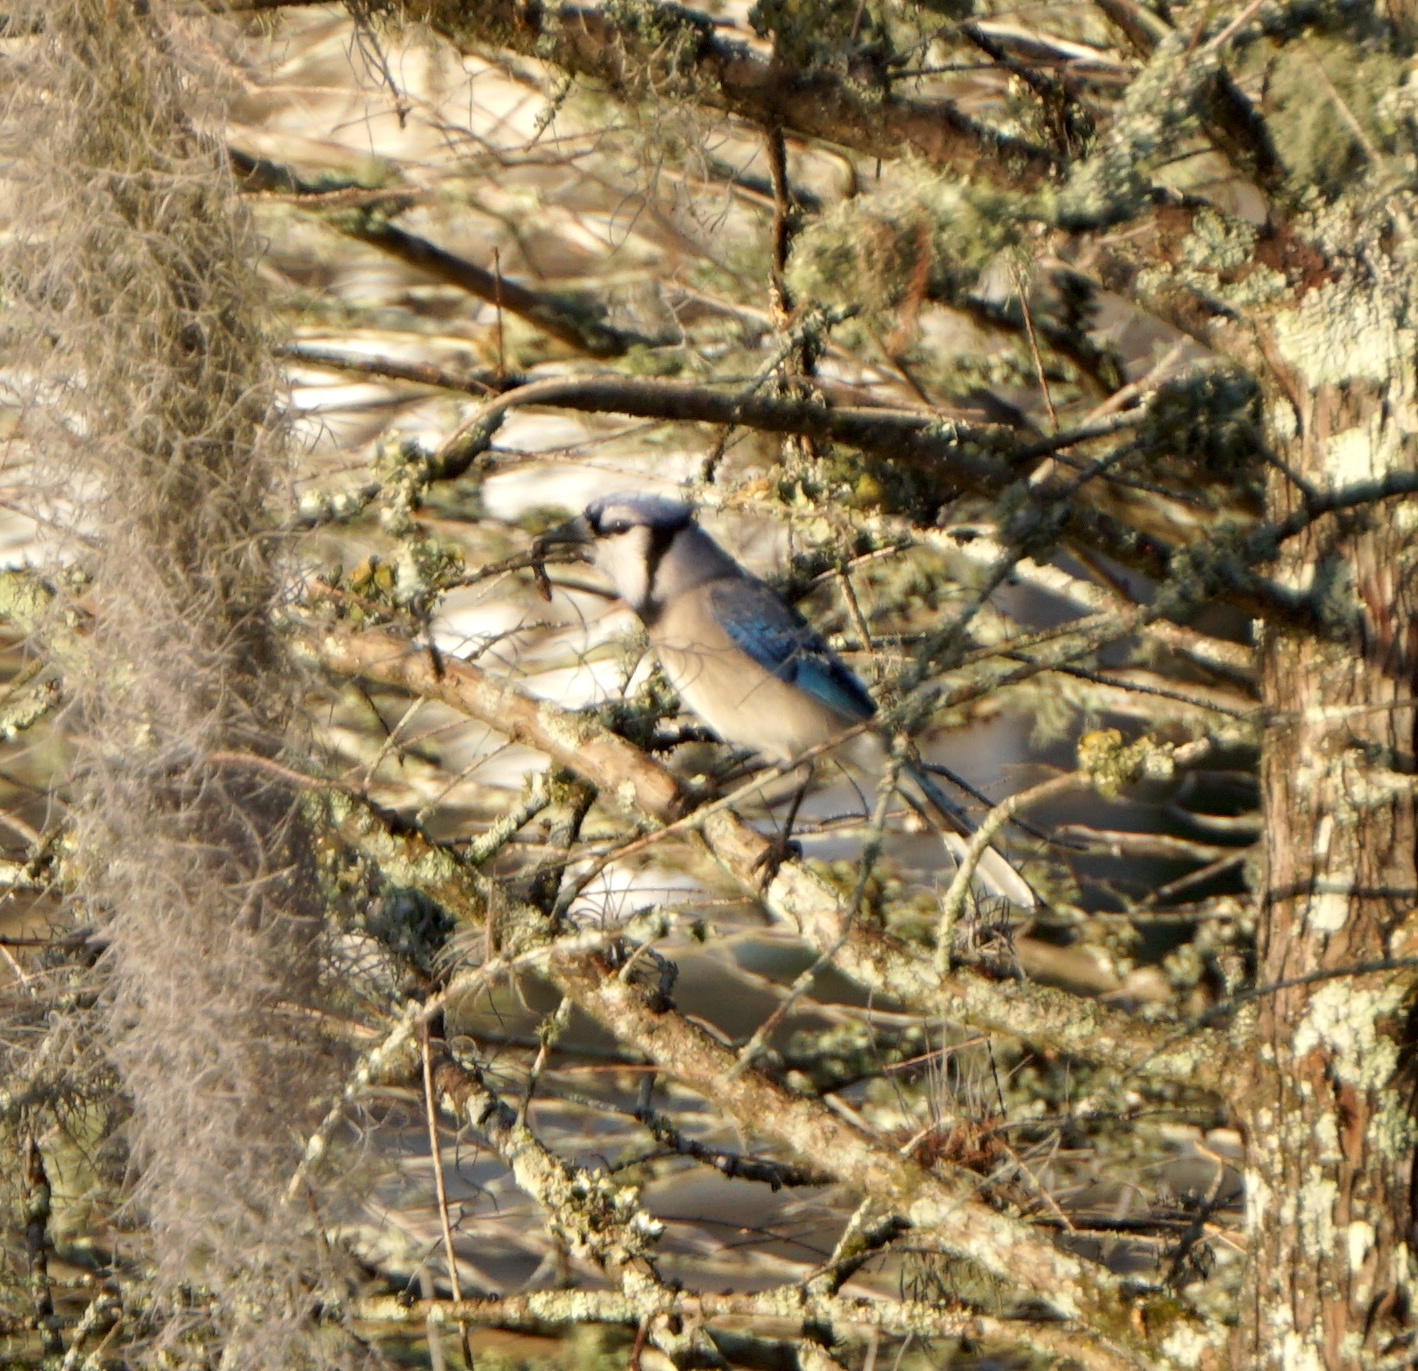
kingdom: Animalia
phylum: Chordata
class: Aves
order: Passeriformes
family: Corvidae
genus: Cyanocitta
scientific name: Cyanocitta cristata
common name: Blue jay
